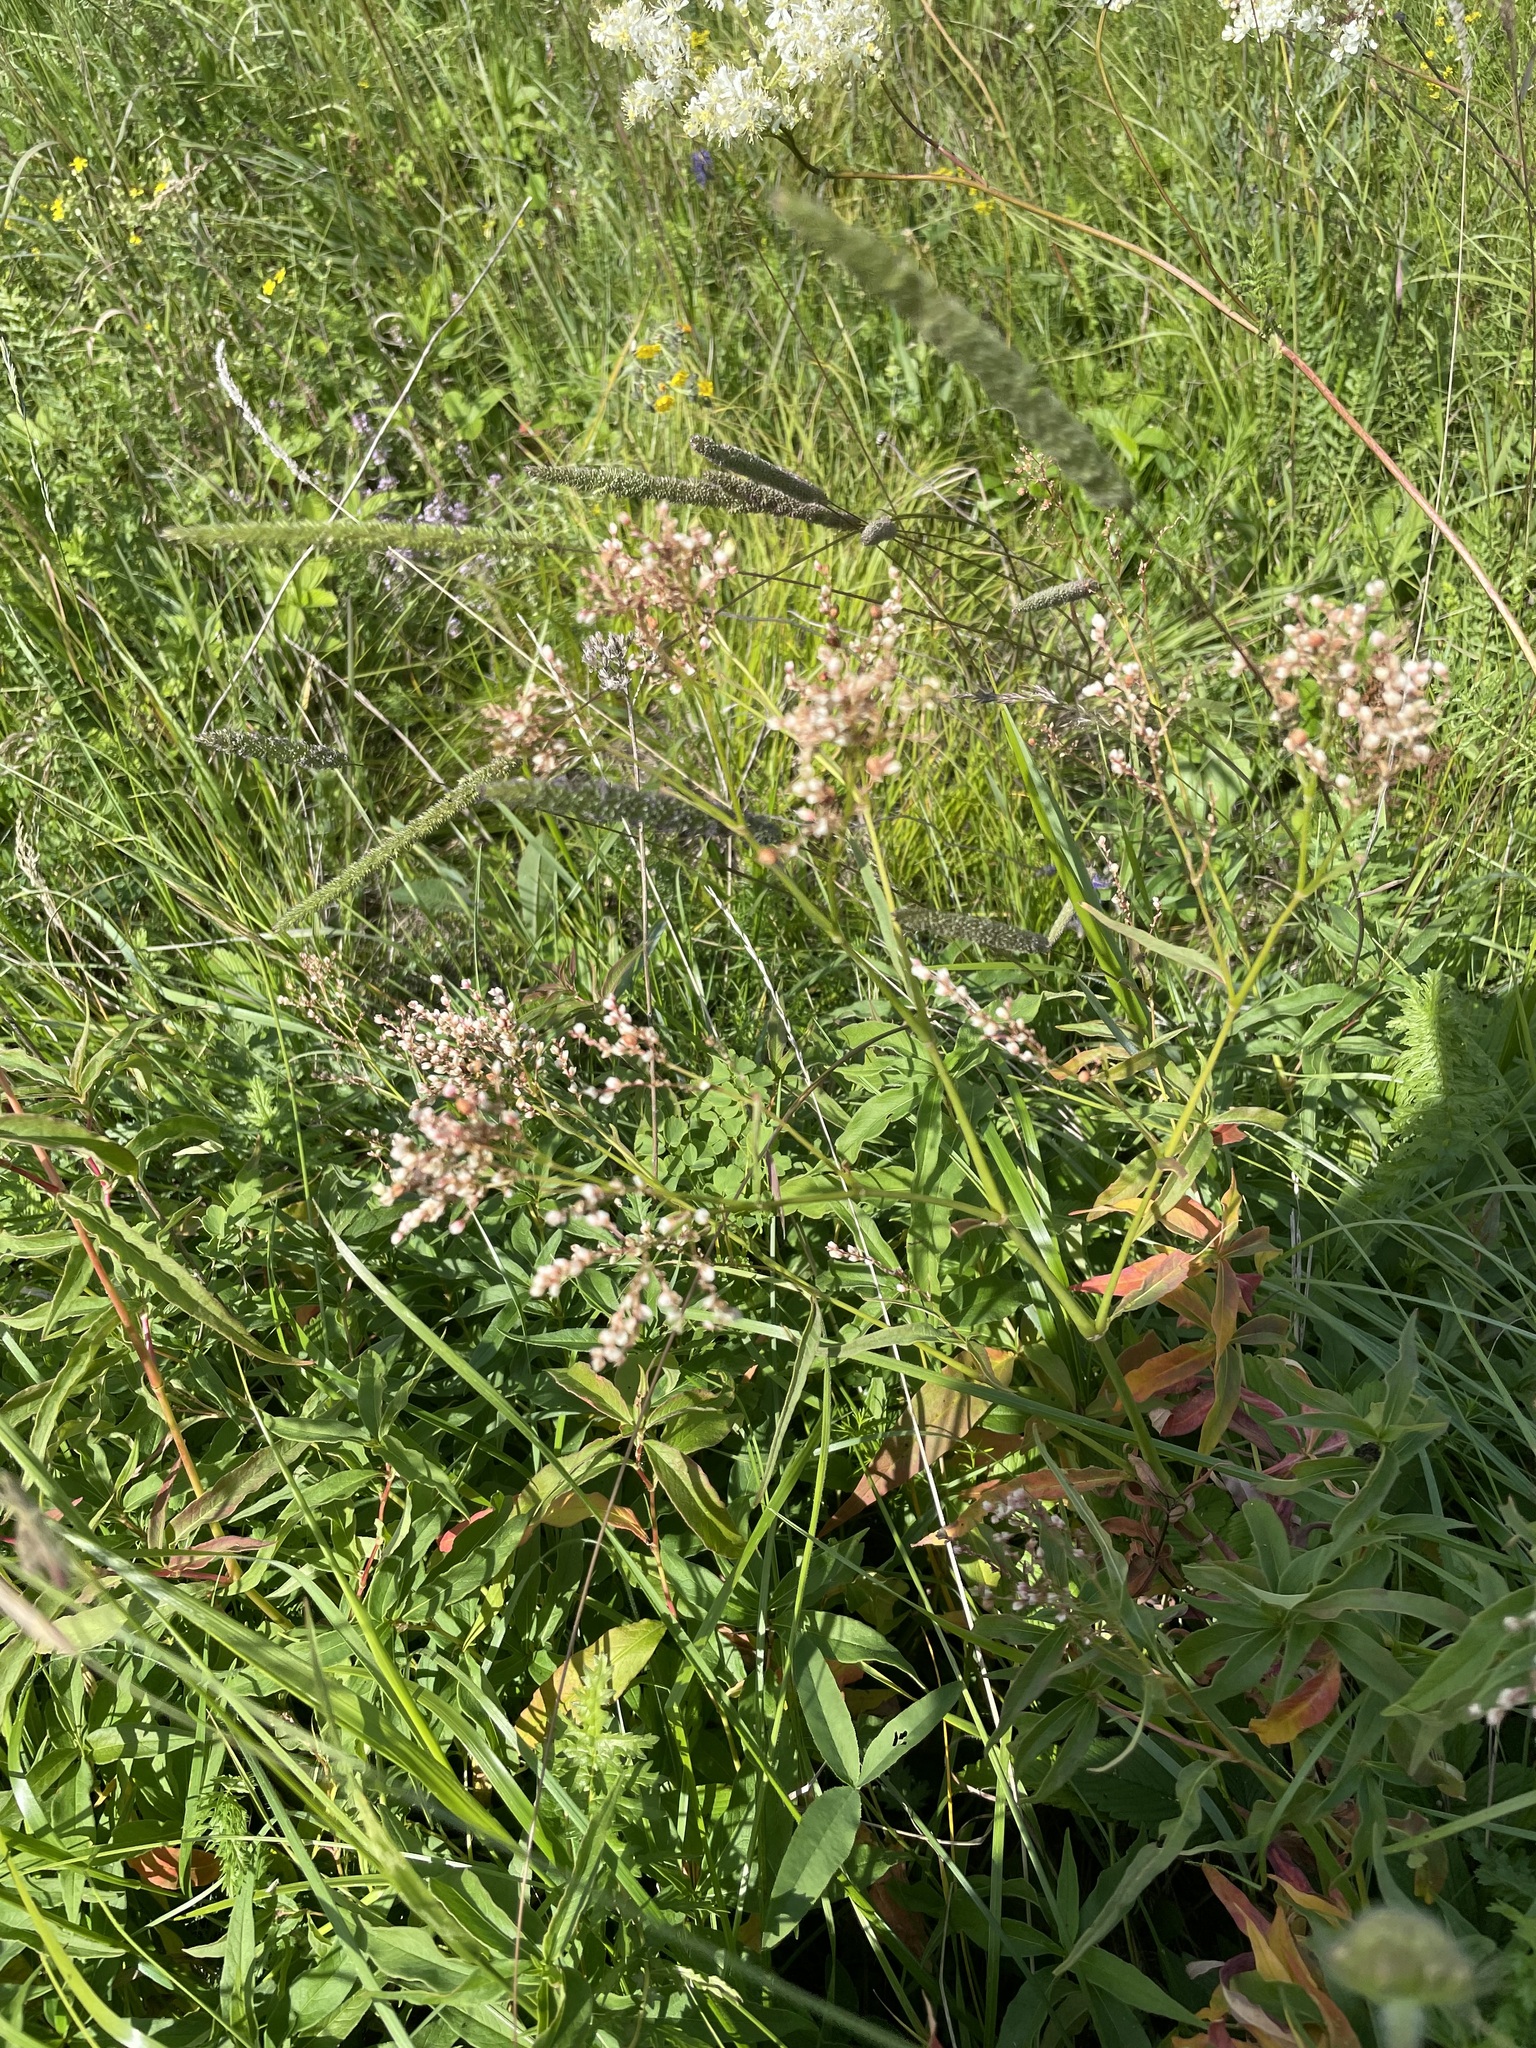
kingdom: Plantae
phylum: Tracheophyta
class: Magnoliopsida
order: Caryophyllales
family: Polygonaceae
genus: Koenigia
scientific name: Koenigia alpina
